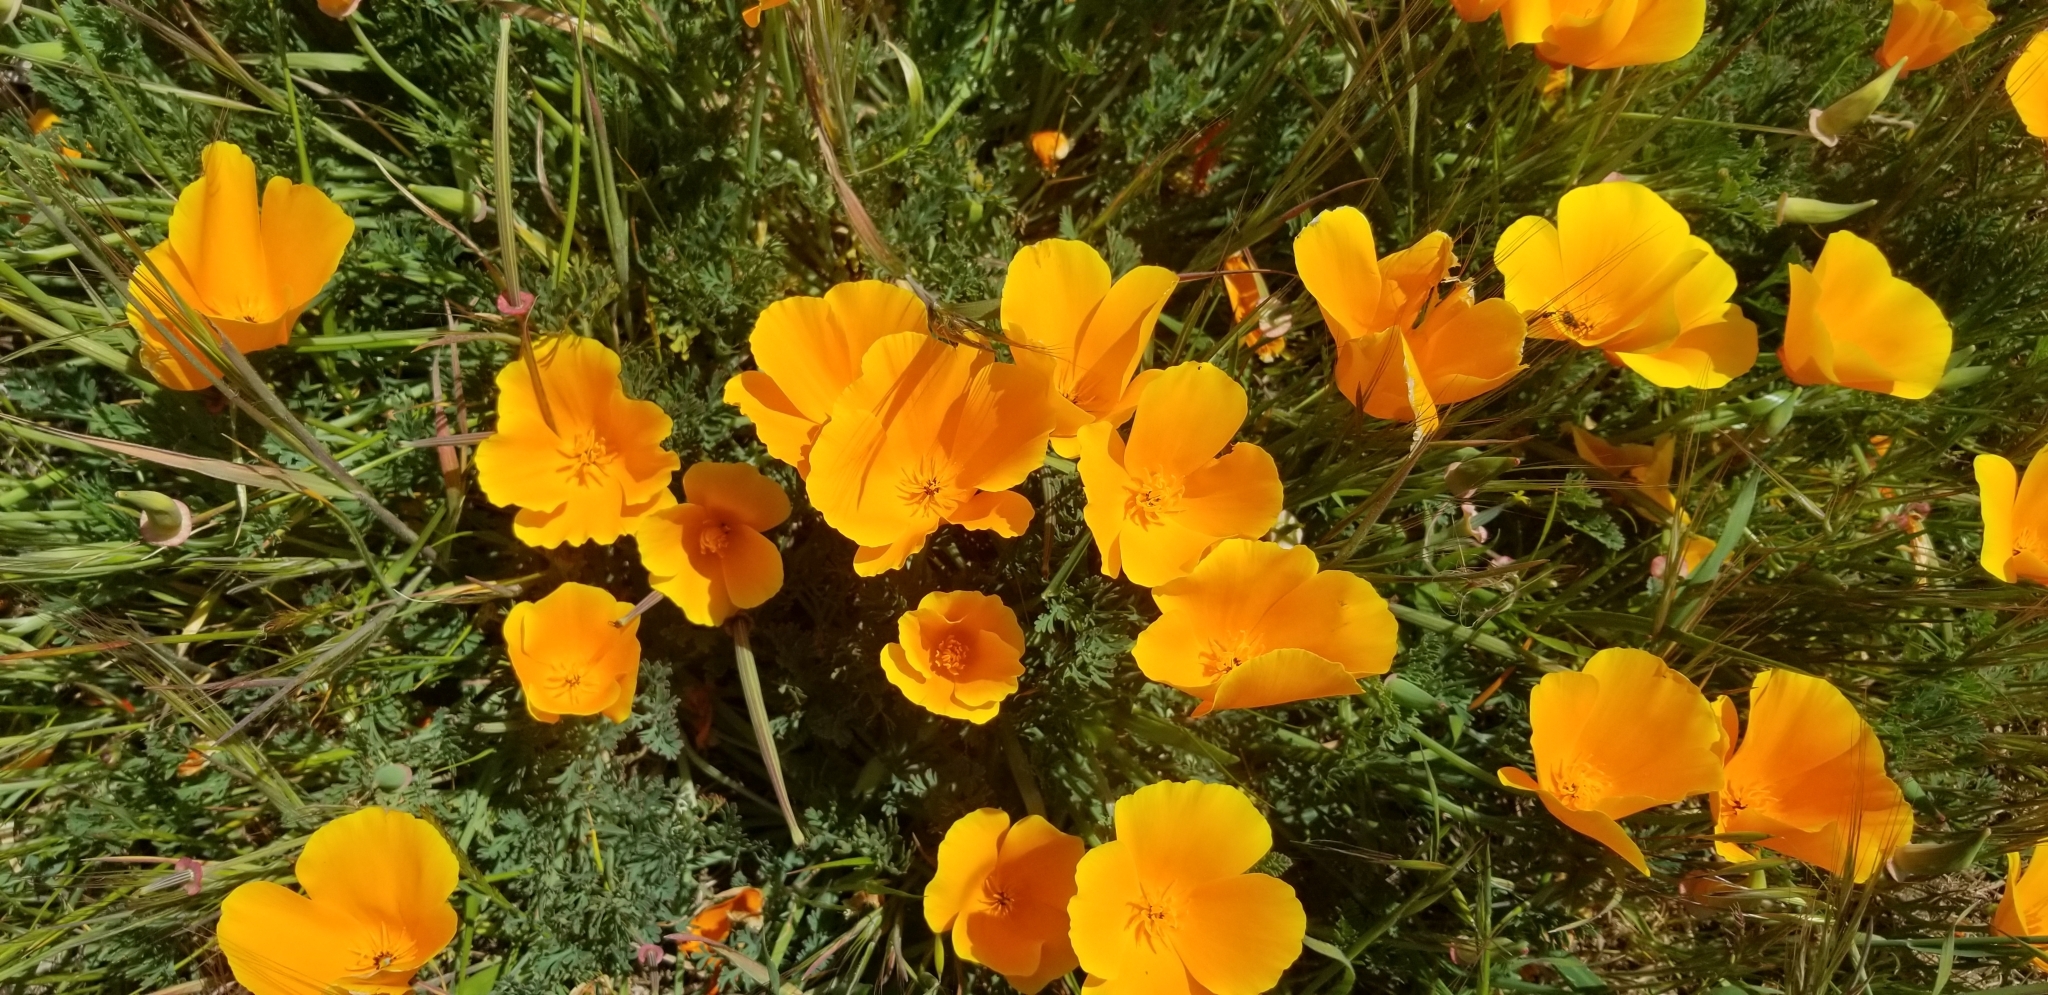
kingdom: Plantae
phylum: Tracheophyta
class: Magnoliopsida
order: Ranunculales
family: Papaveraceae
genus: Eschscholzia
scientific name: Eschscholzia californica
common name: California poppy
